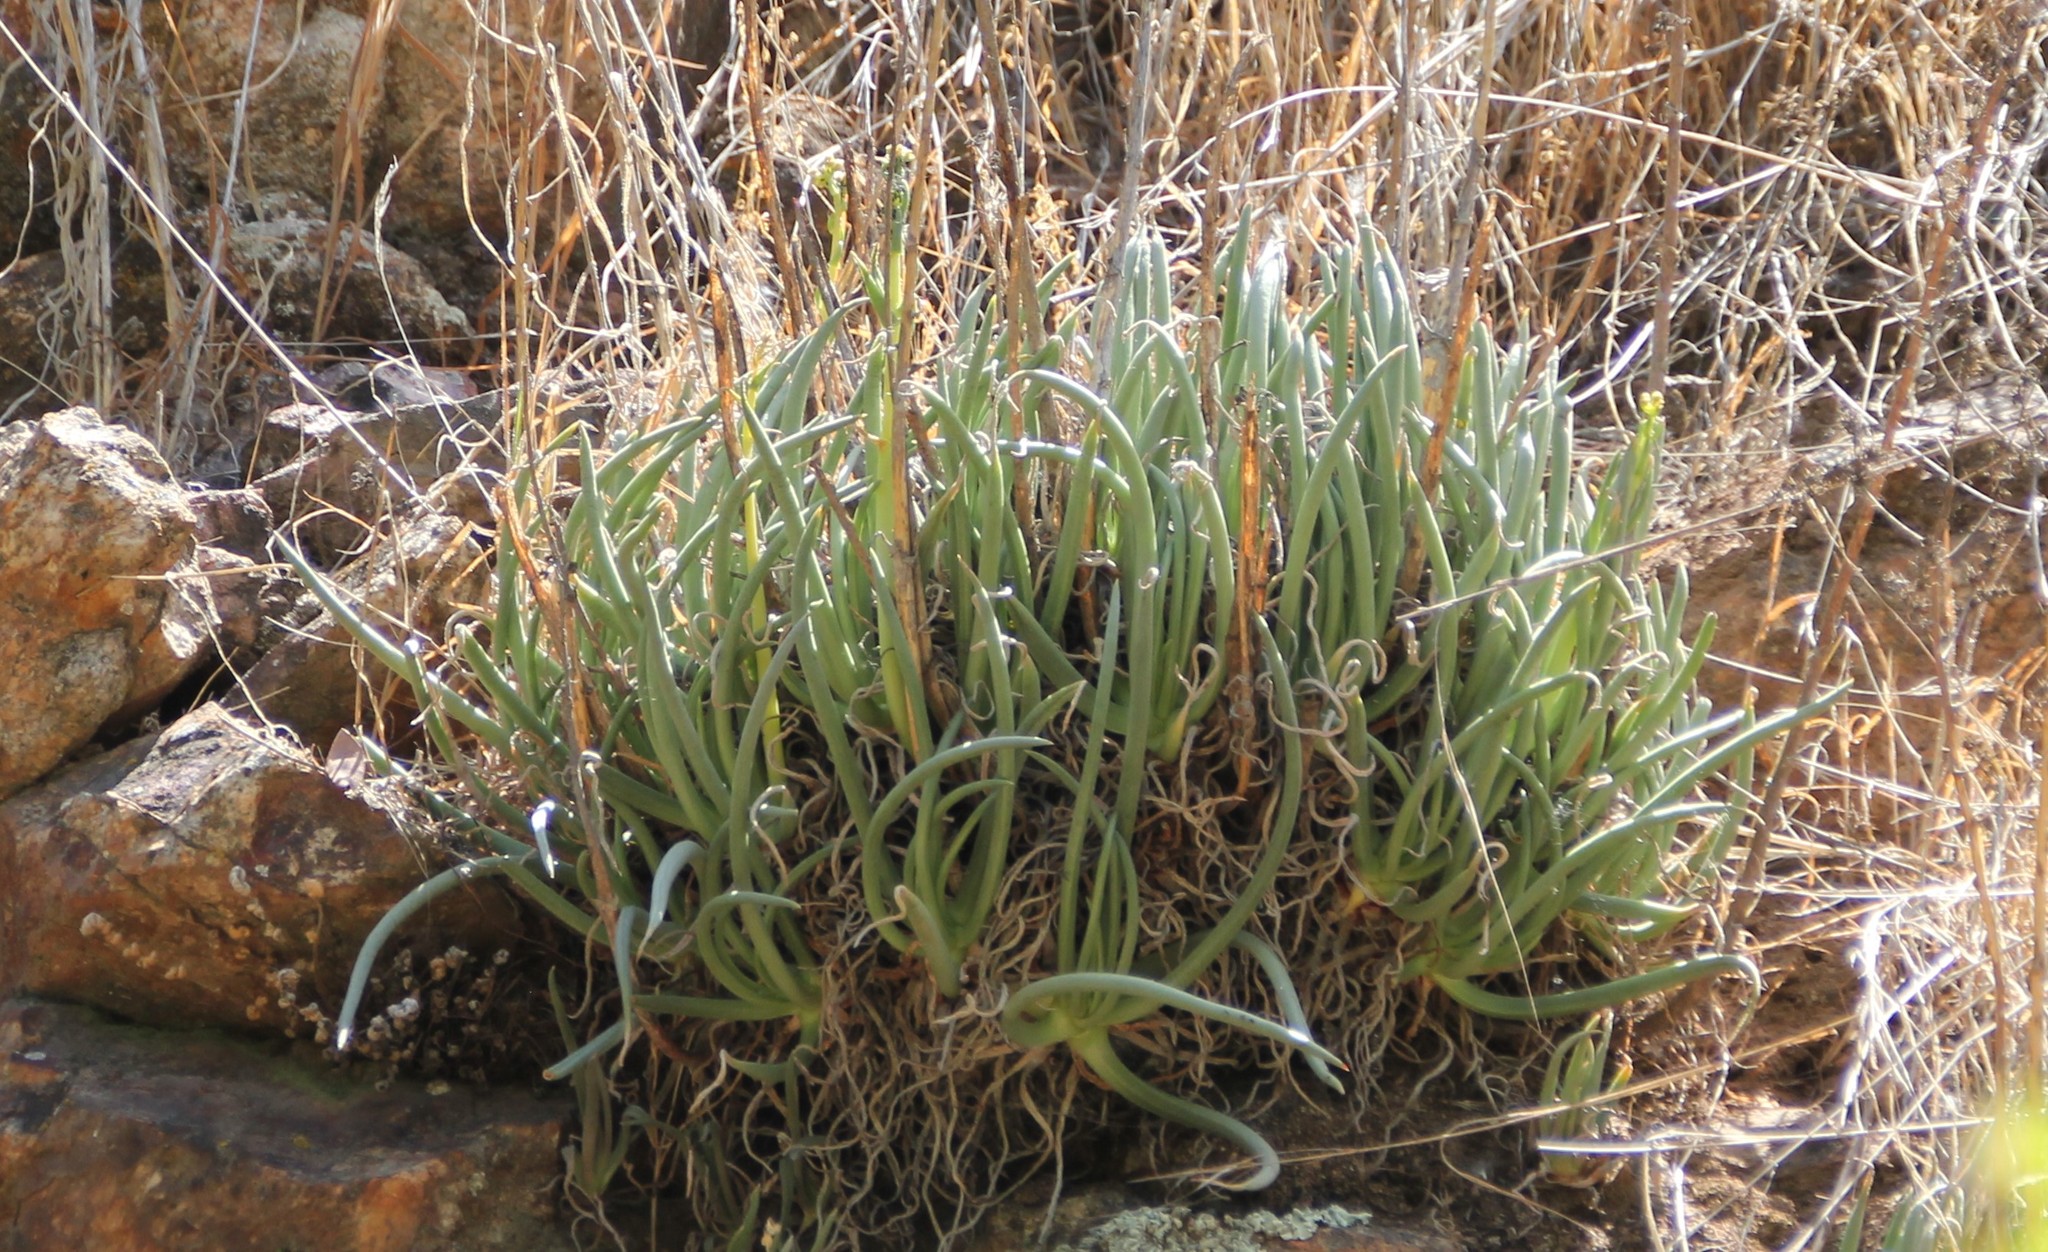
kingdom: Plantae
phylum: Tracheophyta
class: Magnoliopsida
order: Saxifragales
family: Crassulaceae
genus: Dudleya
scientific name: Dudleya edulis
